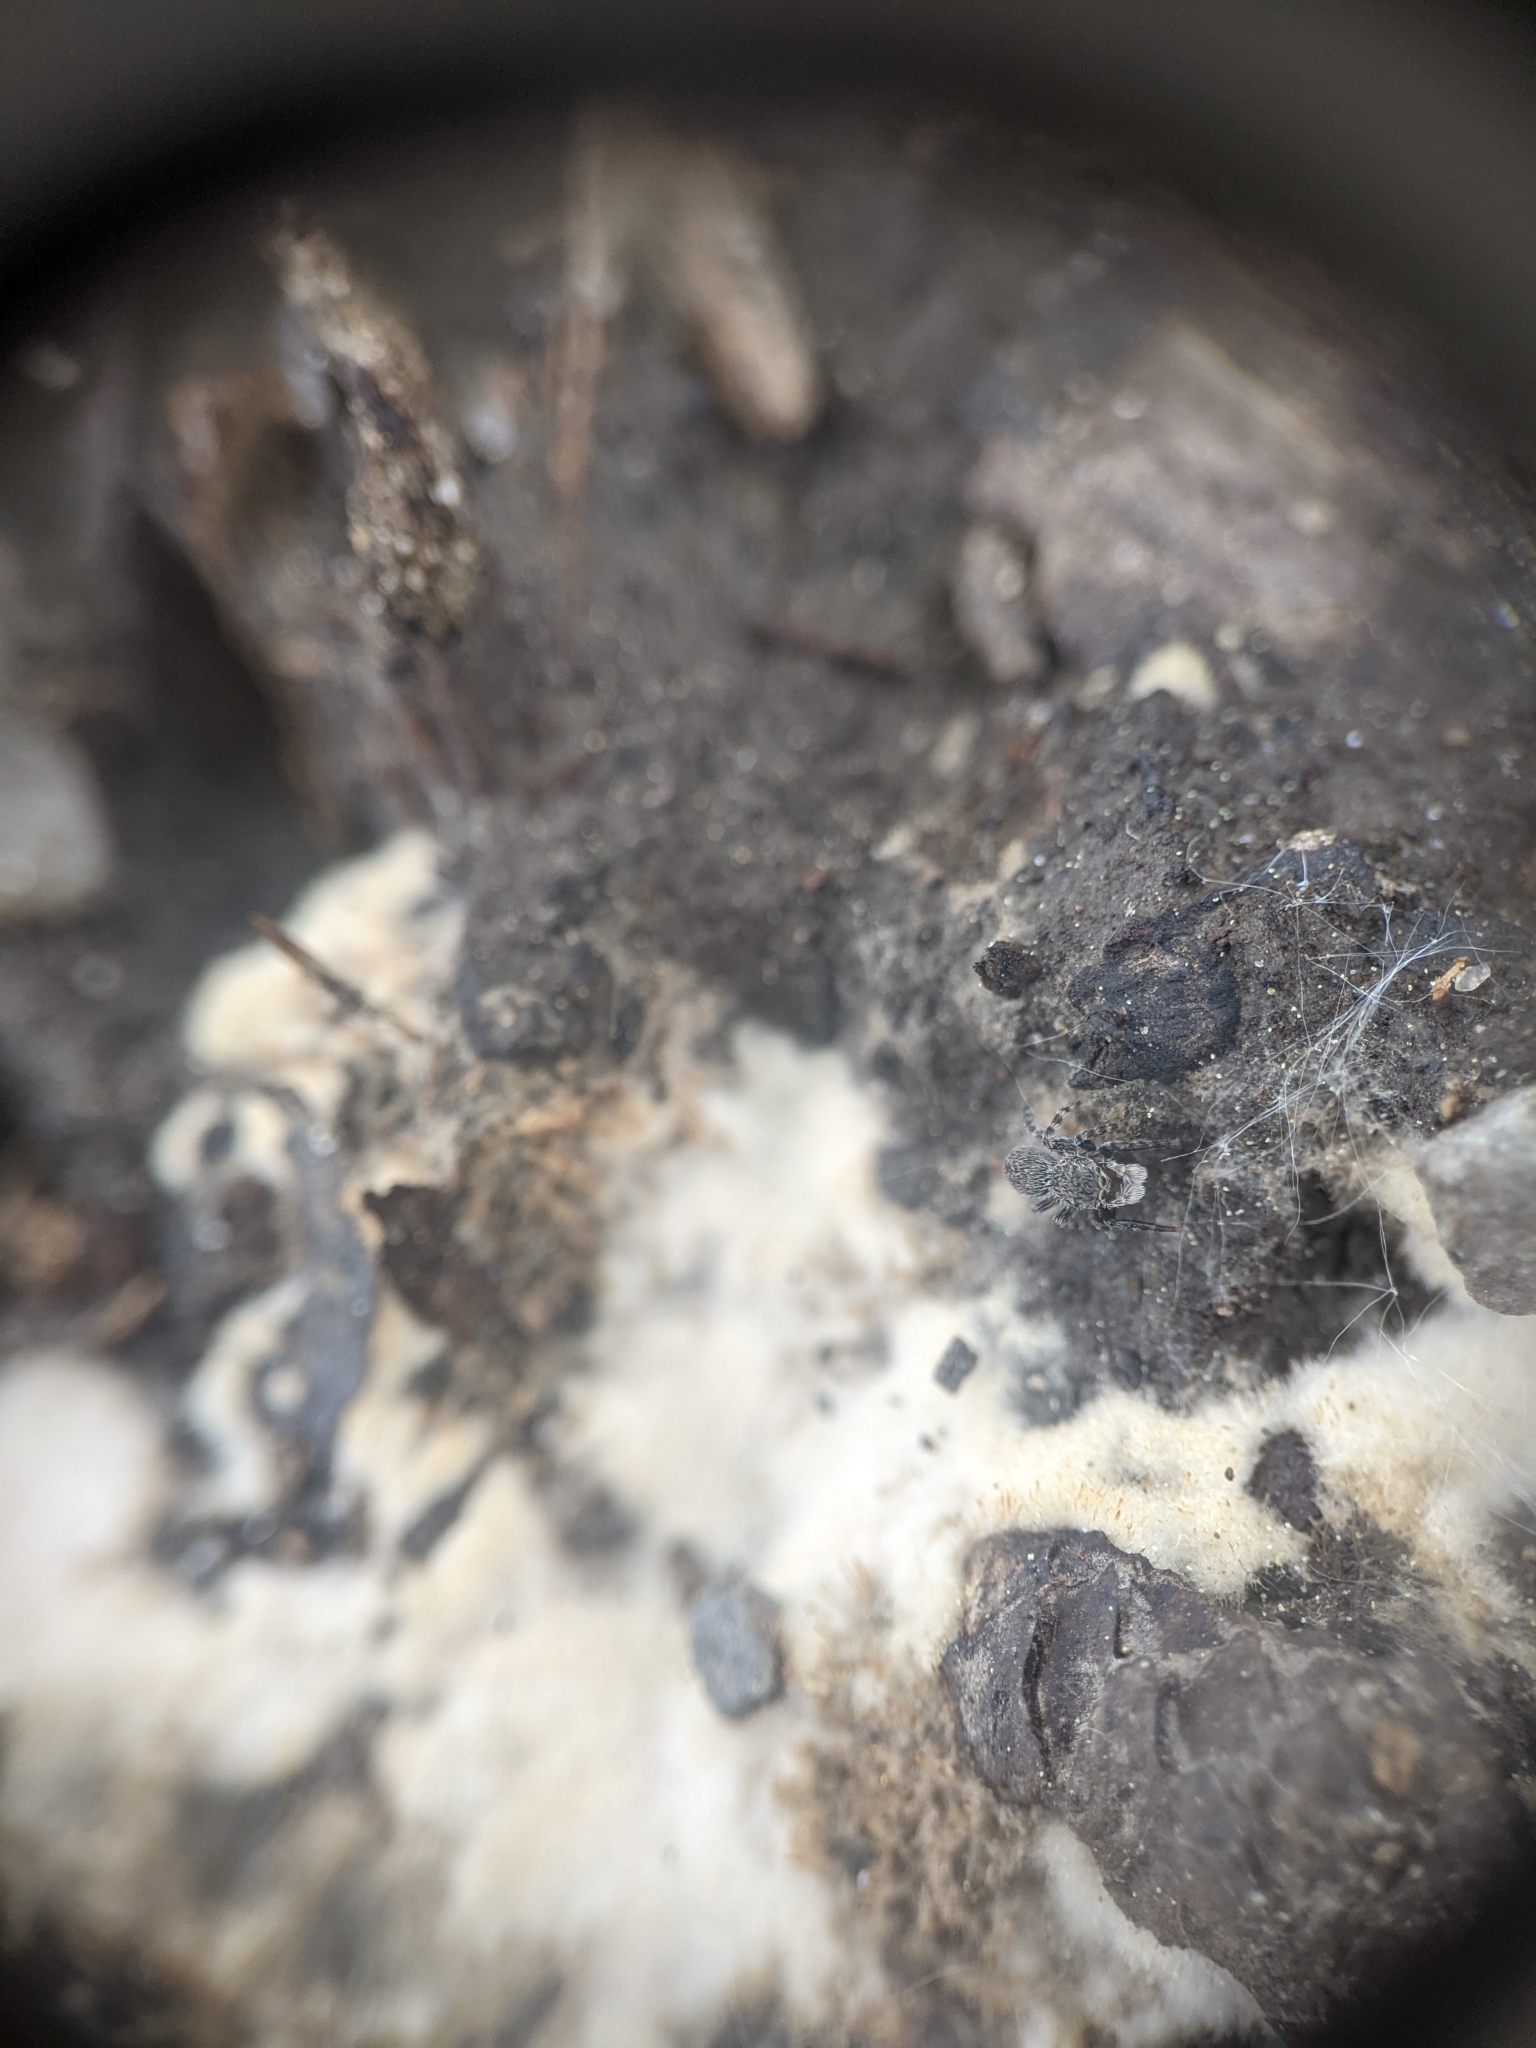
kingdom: Animalia
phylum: Arthropoda
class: Arachnida
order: Araneae
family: Salticidae
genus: Talavera
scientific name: Talavera minuta
